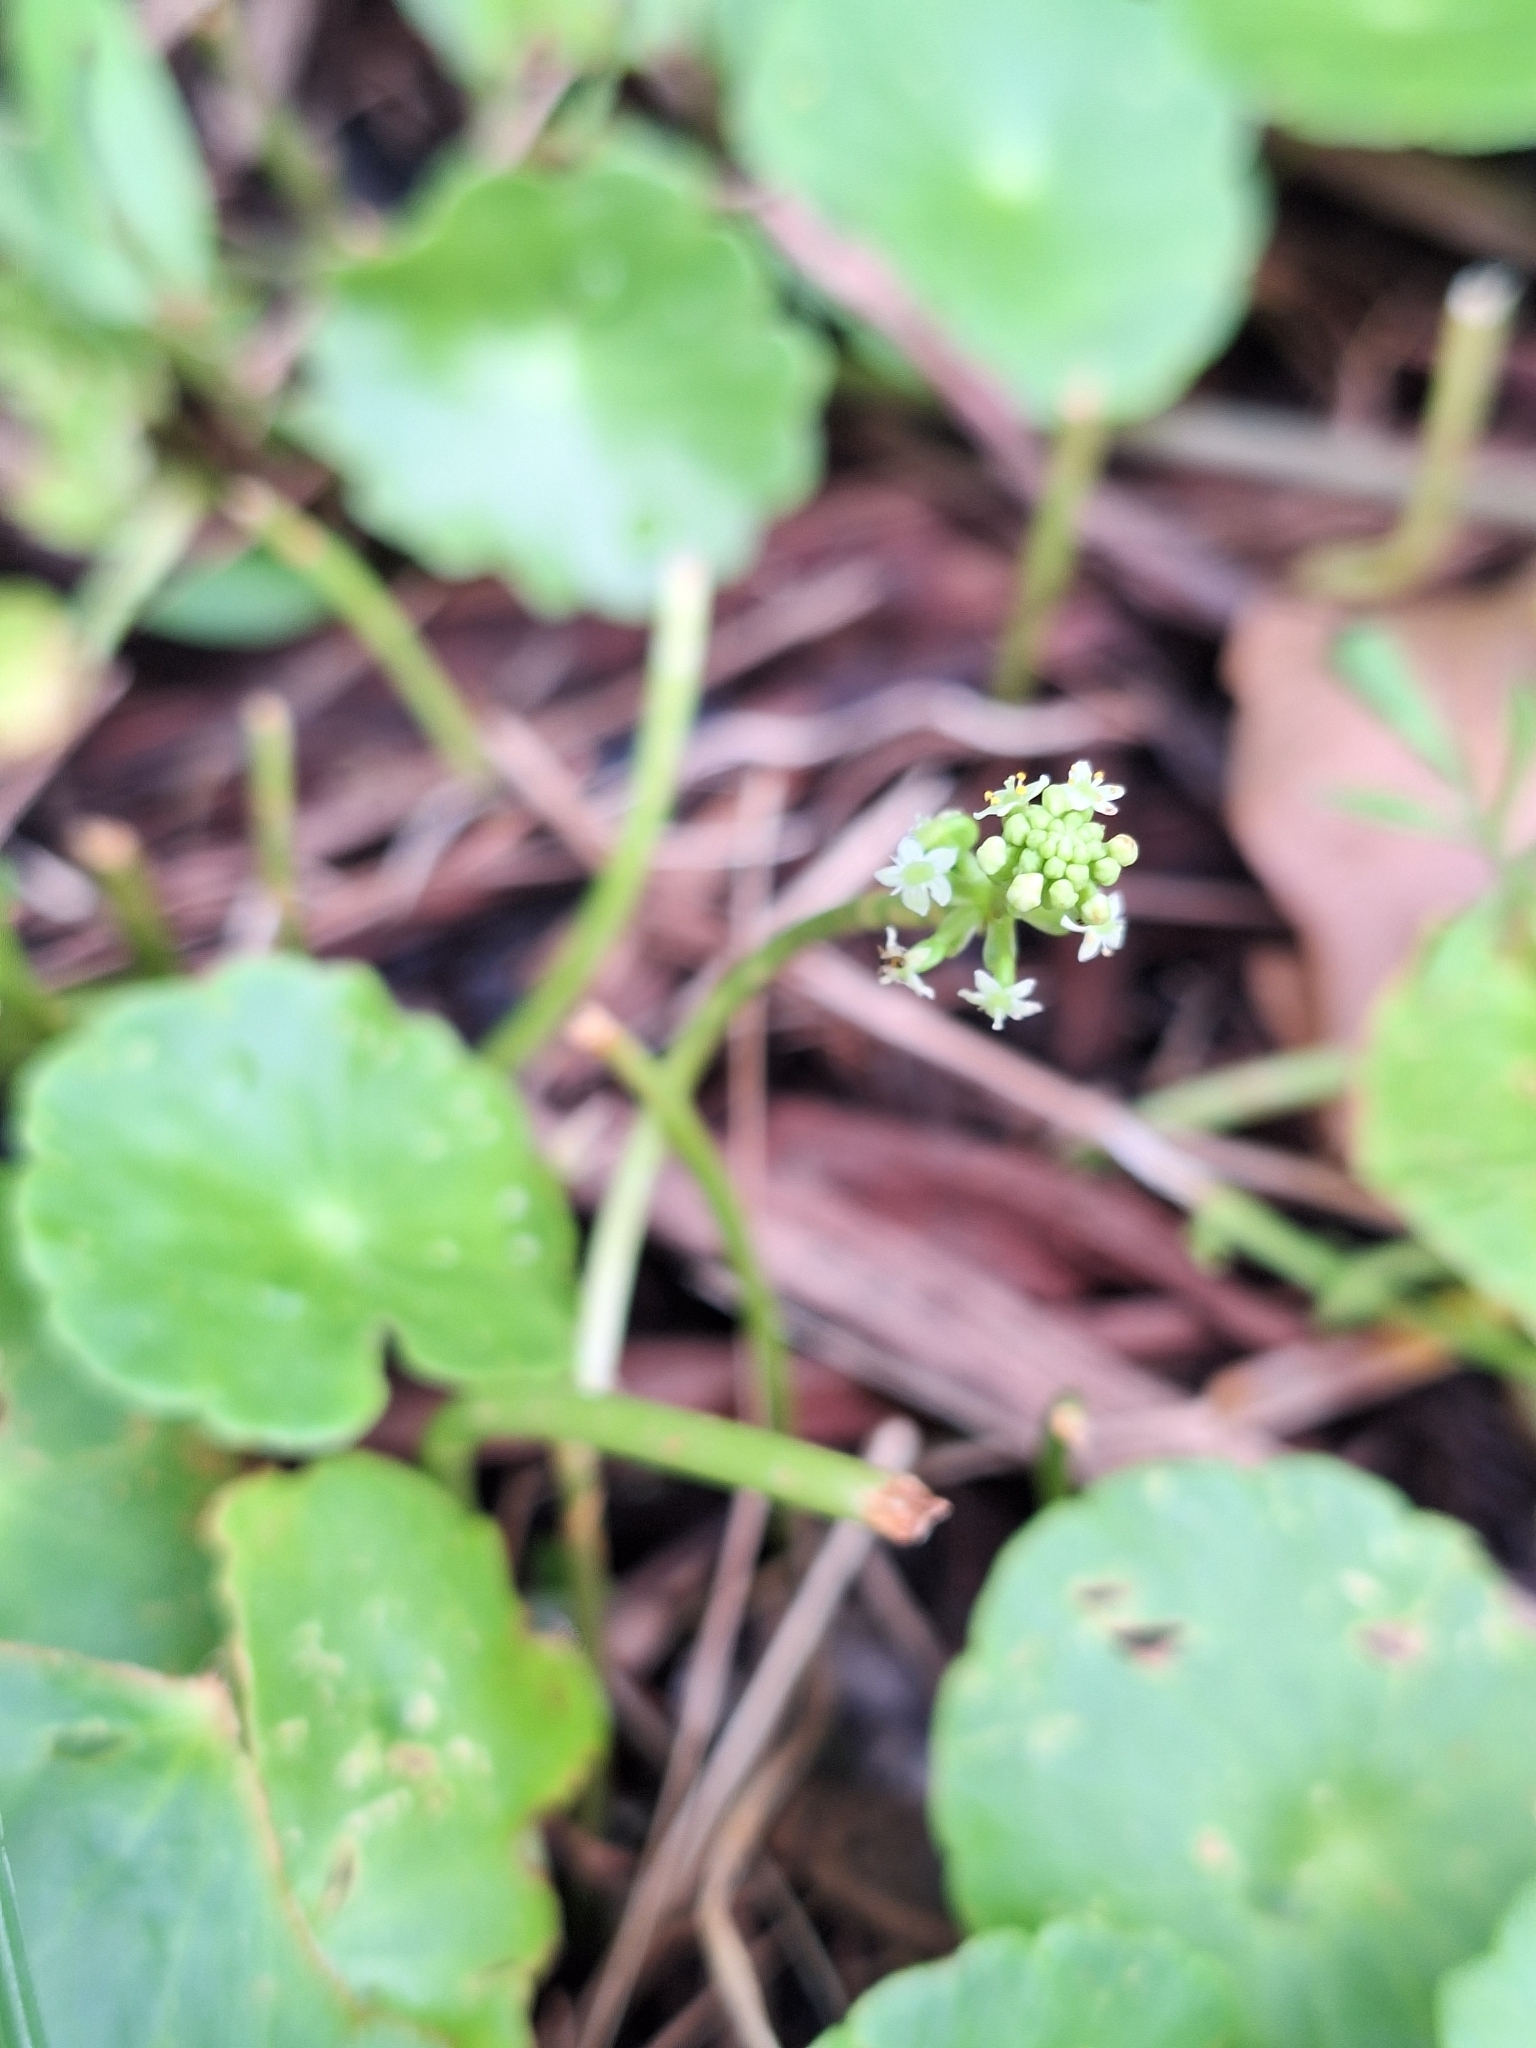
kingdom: Plantae
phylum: Tracheophyta
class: Magnoliopsida
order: Apiales
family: Araliaceae
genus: Hydrocotyle
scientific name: Hydrocotyle verticillata
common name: Whorled marshpennywort
